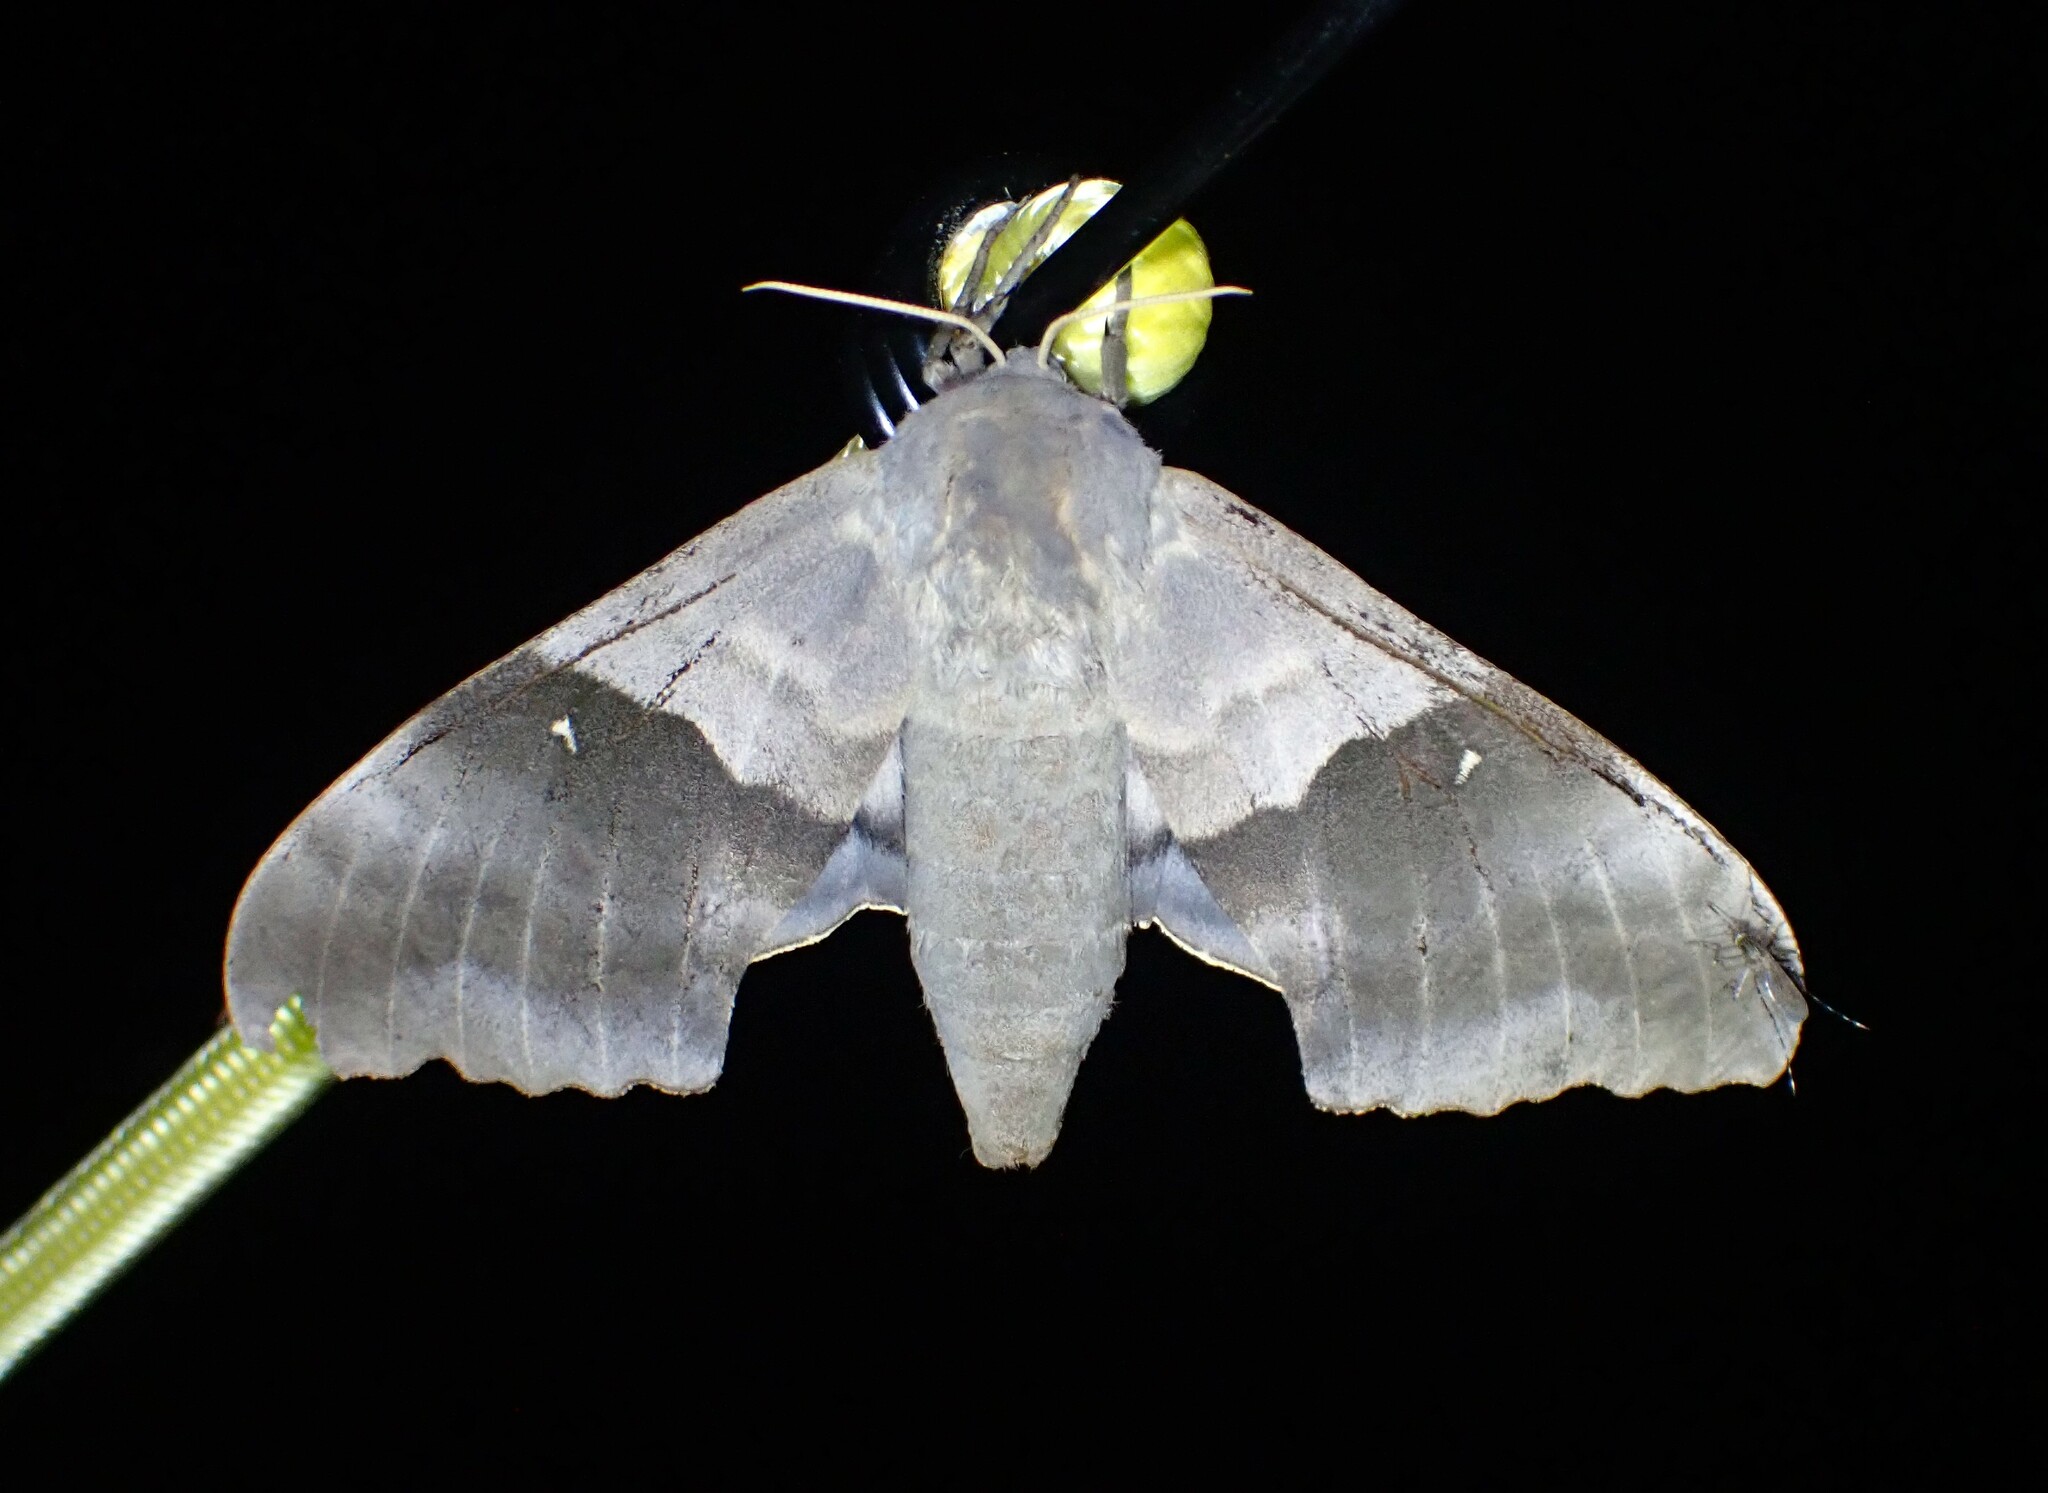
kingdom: Animalia
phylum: Arthropoda
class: Insecta
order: Lepidoptera
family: Sphingidae
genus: Pachysphinx
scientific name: Pachysphinx modesta
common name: Big poplar sphinx
